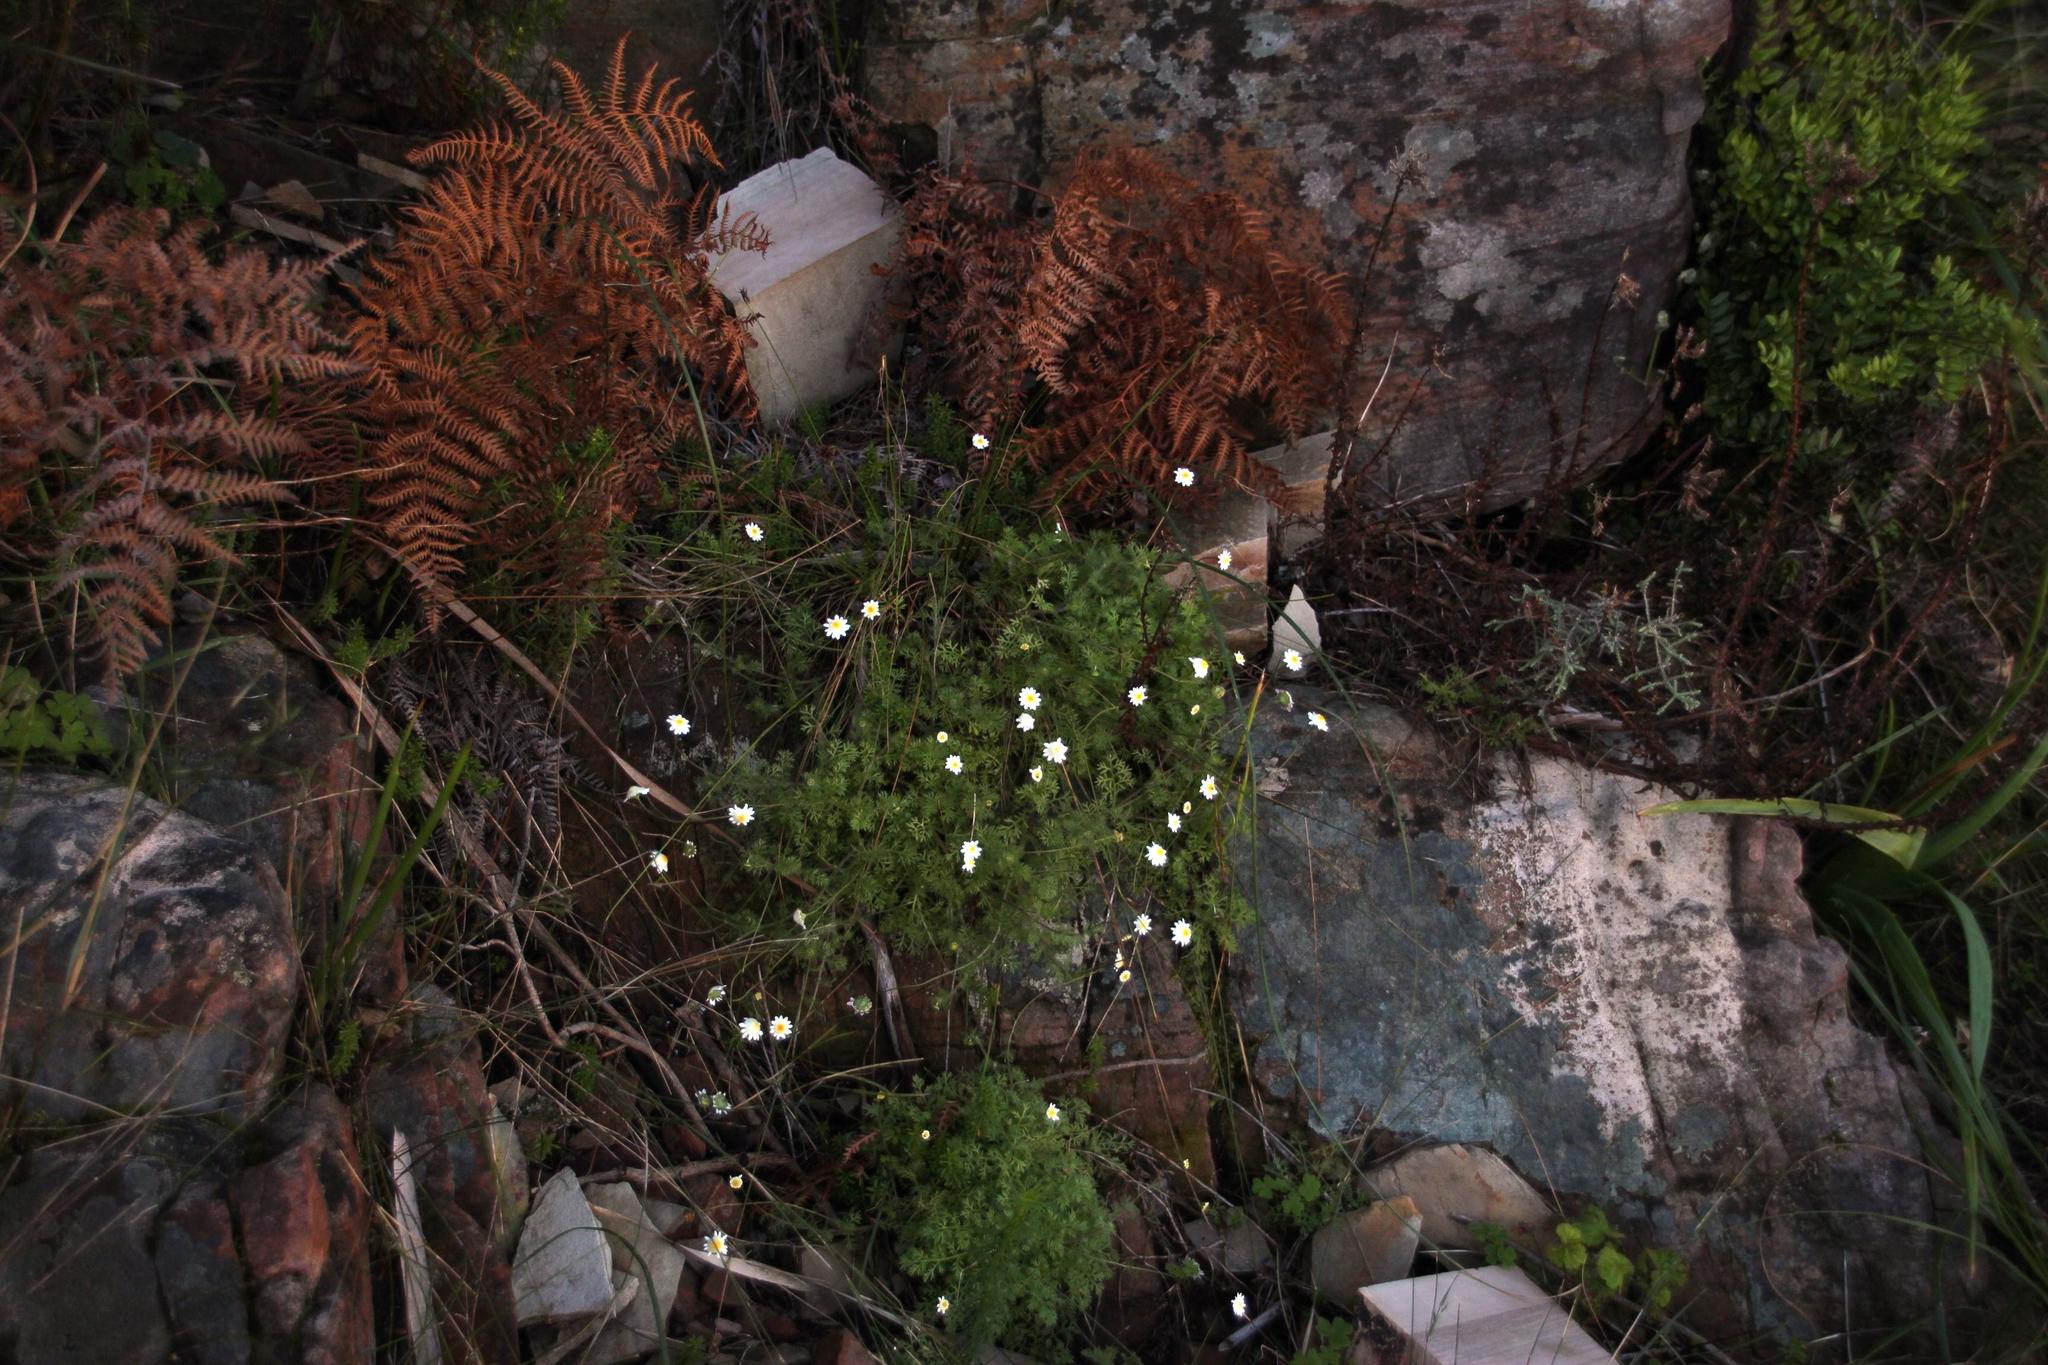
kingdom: Plantae
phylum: Tracheophyta
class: Magnoliopsida
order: Asterales
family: Asteraceae
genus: Cotula
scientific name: Cotula perennans
